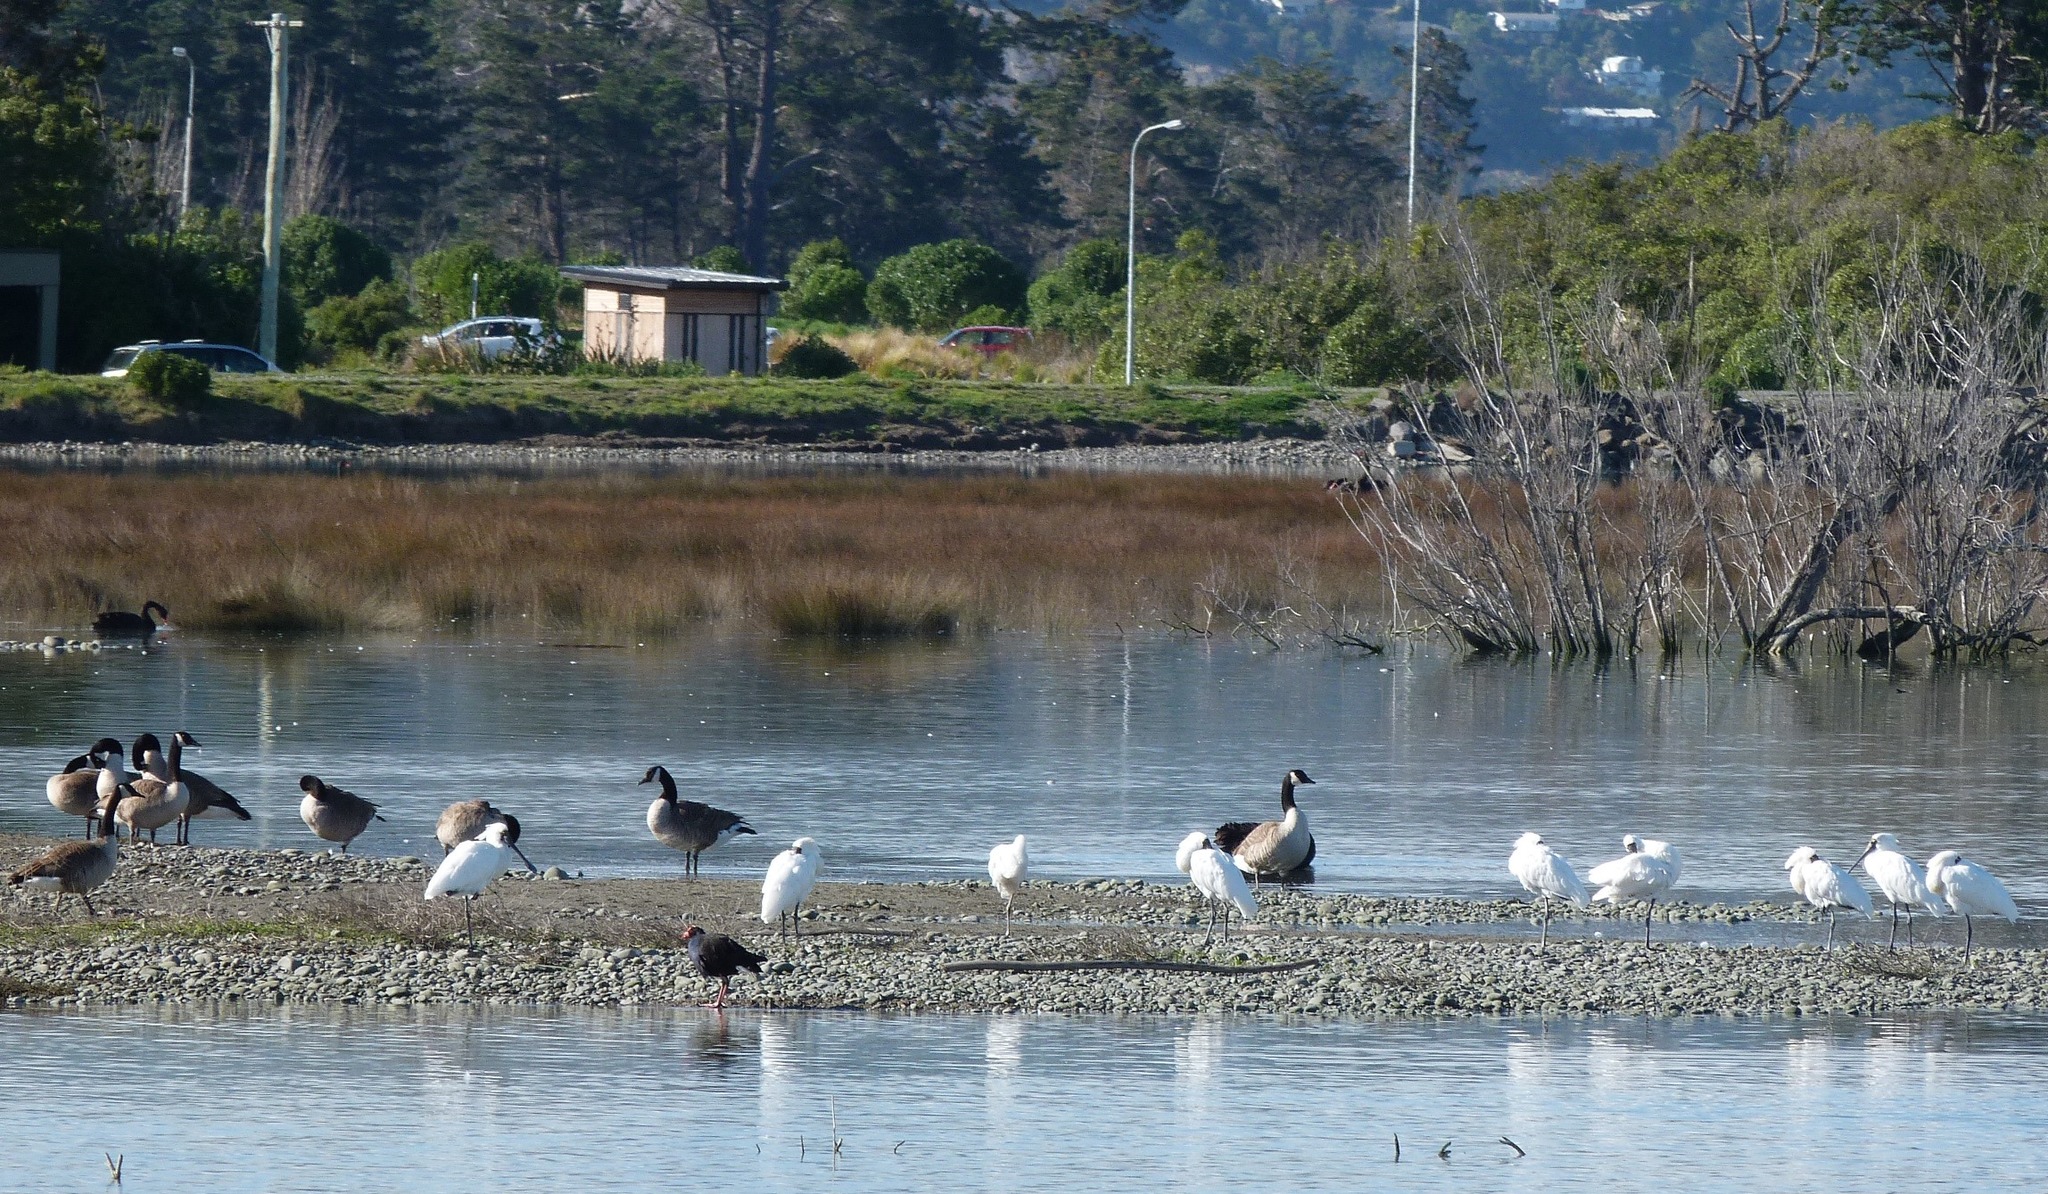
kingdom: Animalia
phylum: Chordata
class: Aves
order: Pelecaniformes
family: Threskiornithidae
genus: Platalea
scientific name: Platalea regia
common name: Royal spoonbill
